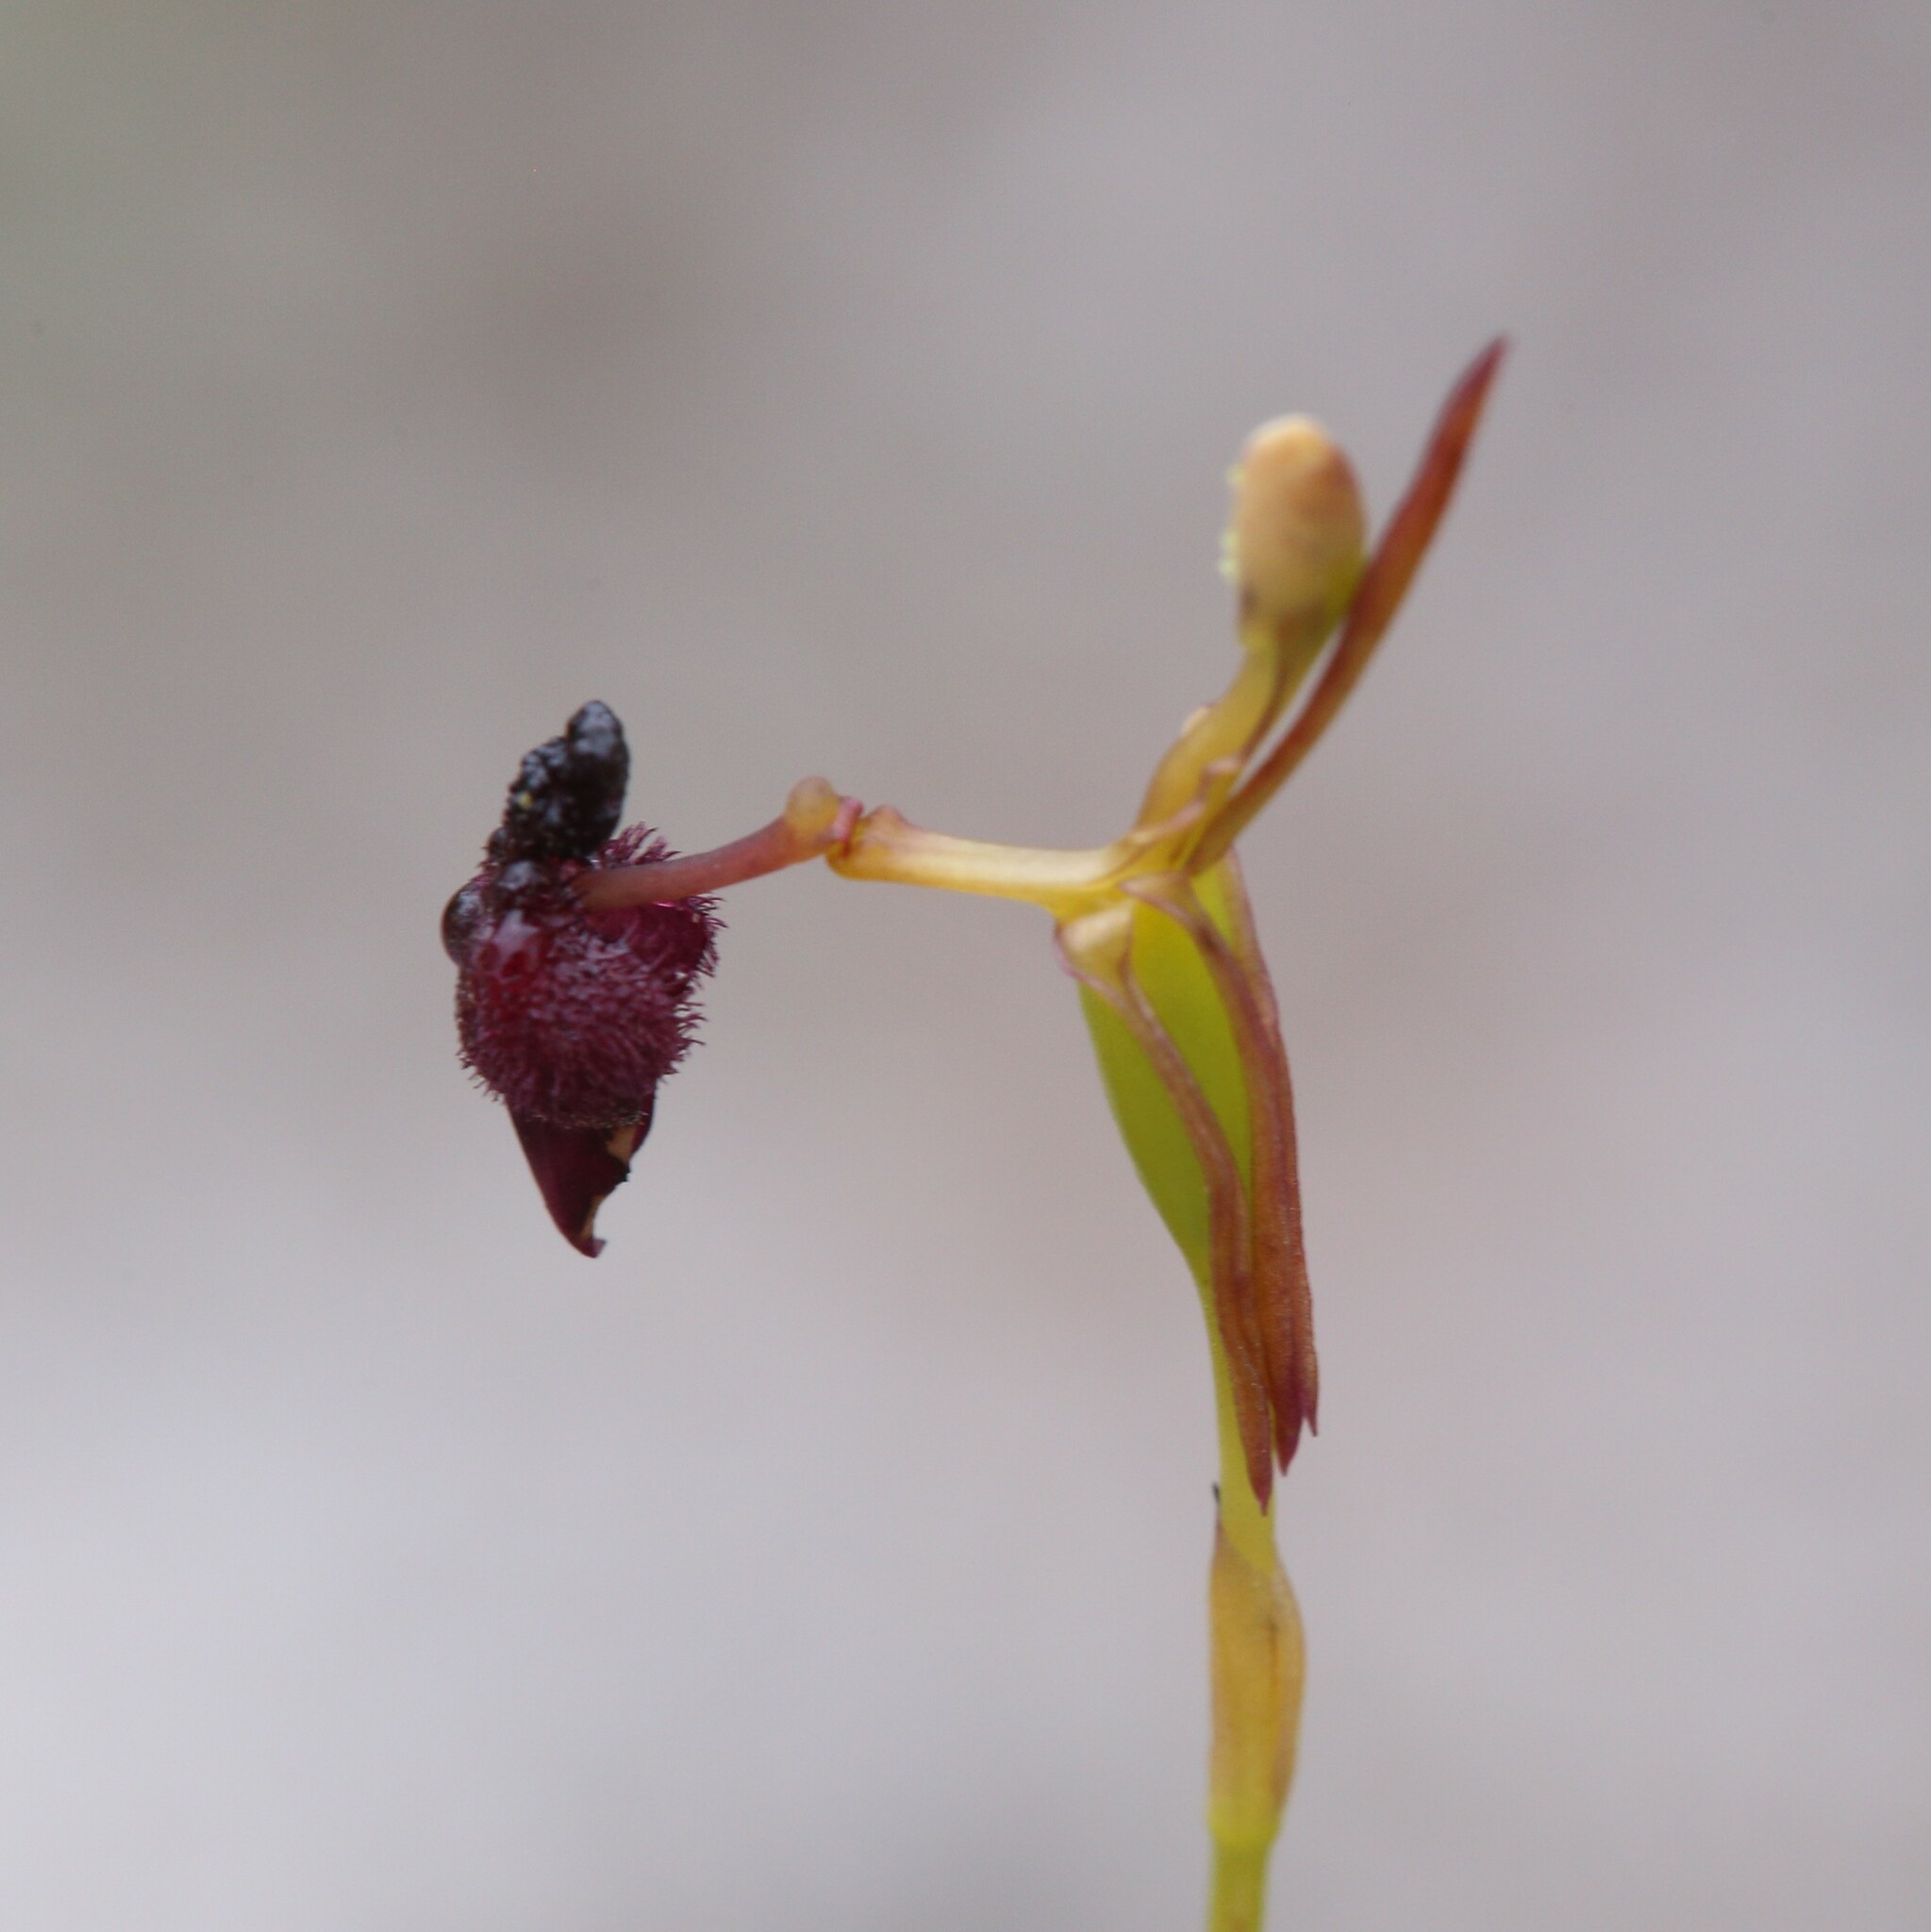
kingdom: Plantae
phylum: Tracheophyta
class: Liliopsida
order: Asparagales
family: Orchidaceae
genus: Drakaea
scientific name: Drakaea glyptodon
